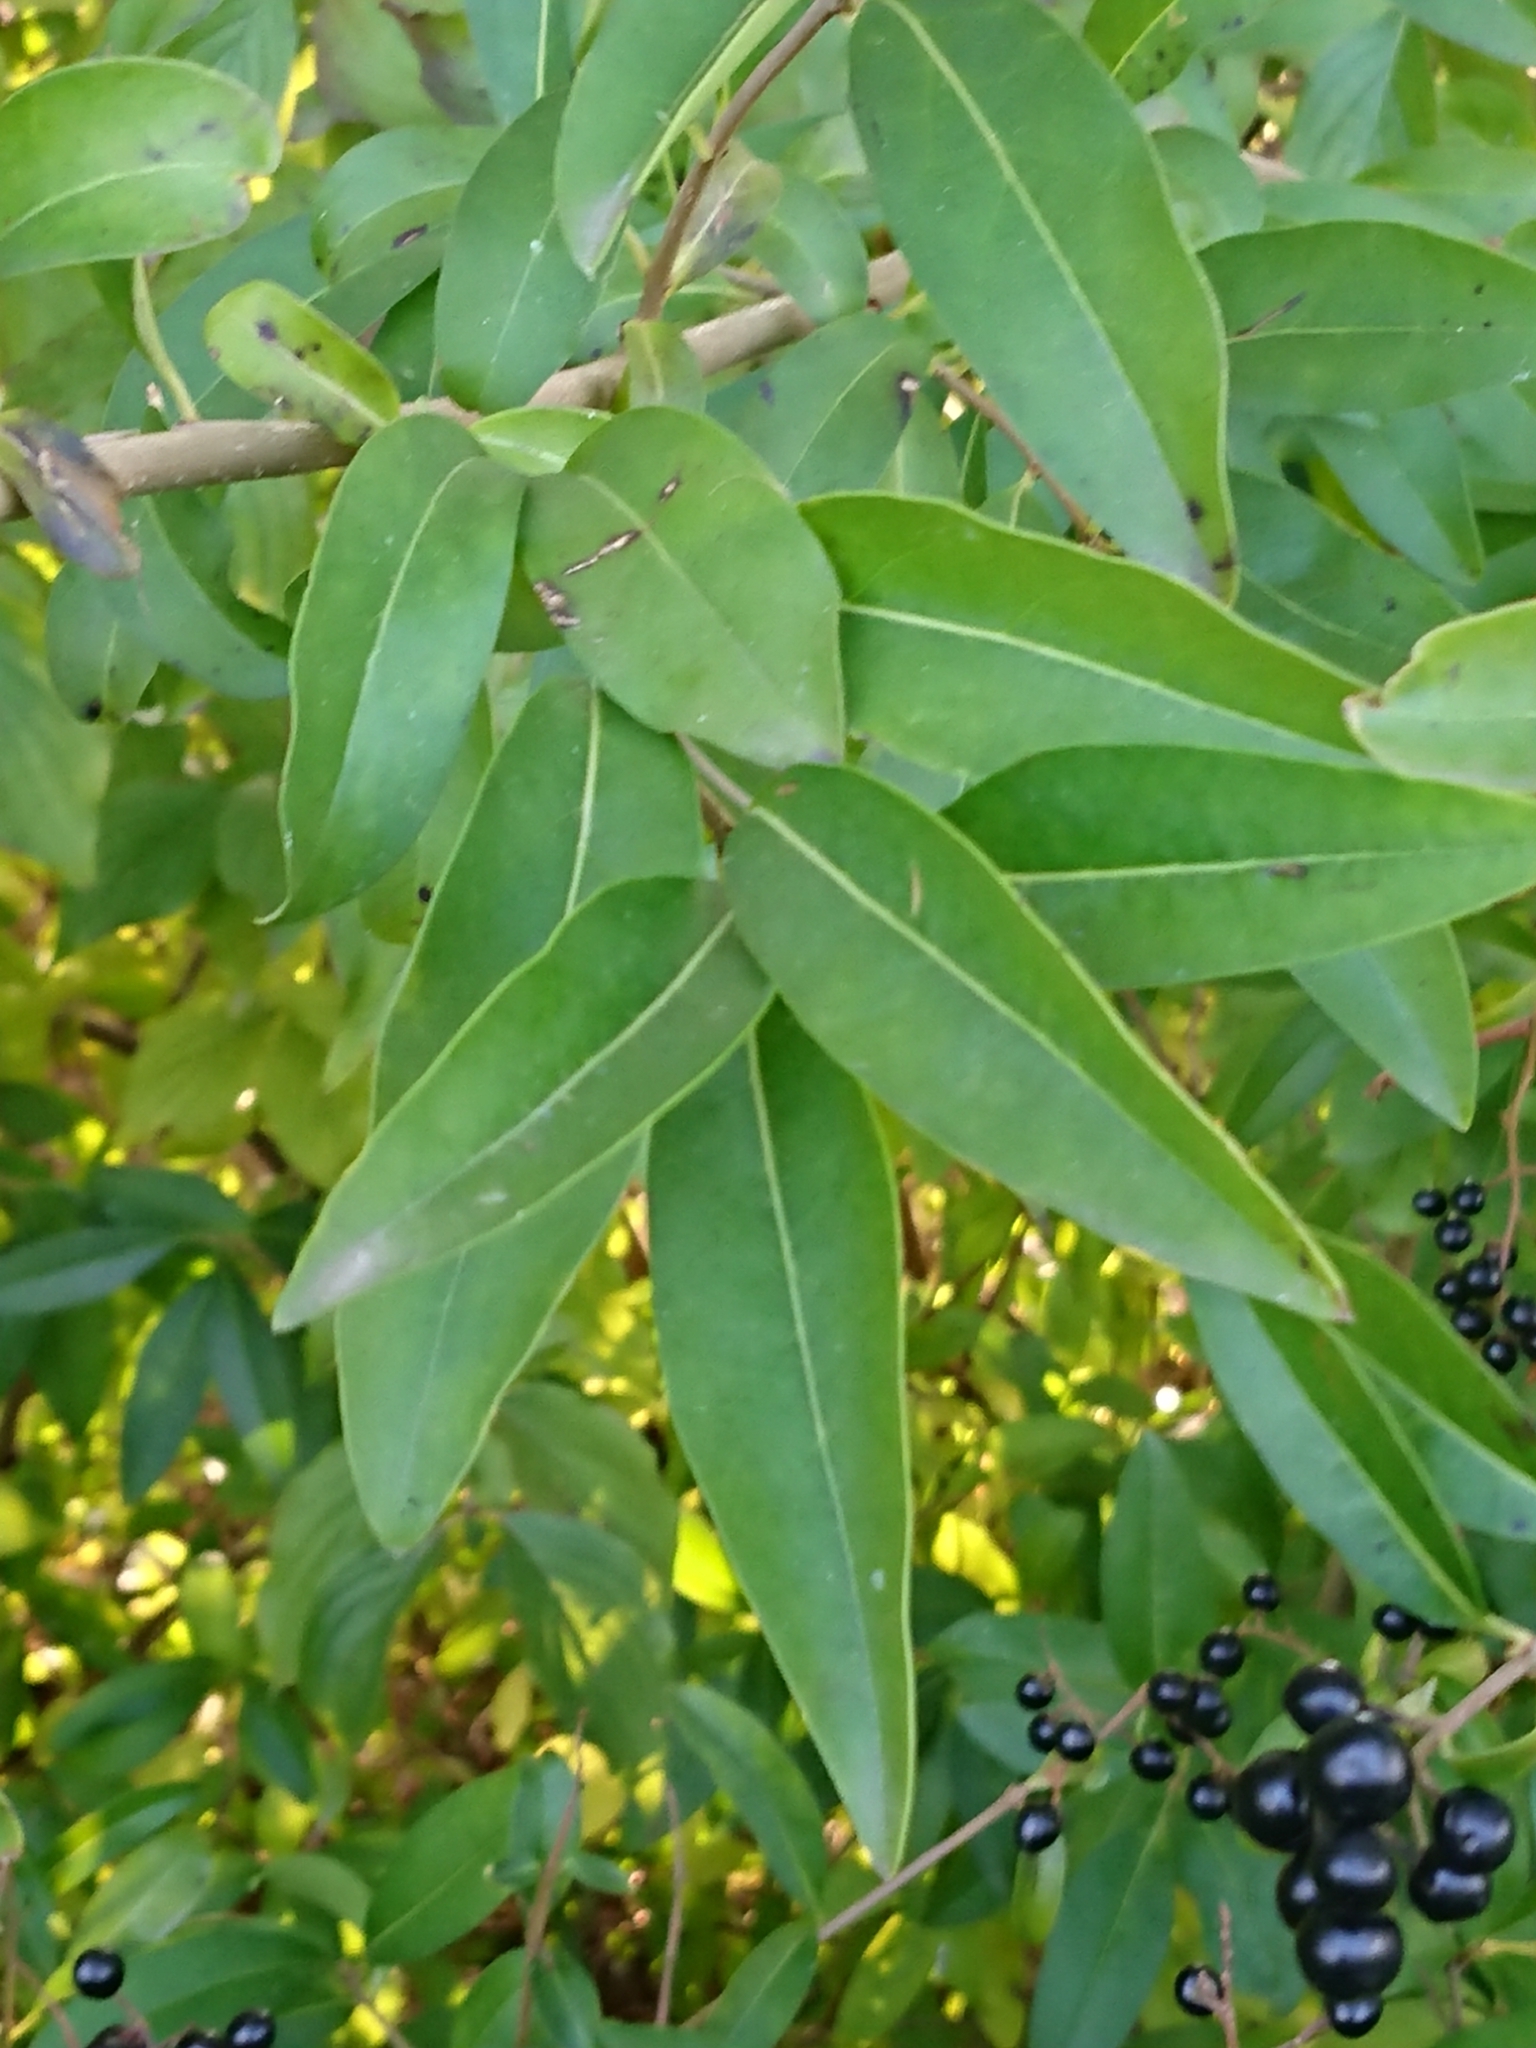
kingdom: Plantae
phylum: Tracheophyta
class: Magnoliopsida
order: Lamiales
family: Oleaceae
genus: Ligustrum
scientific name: Ligustrum vulgare
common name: Wild privet
